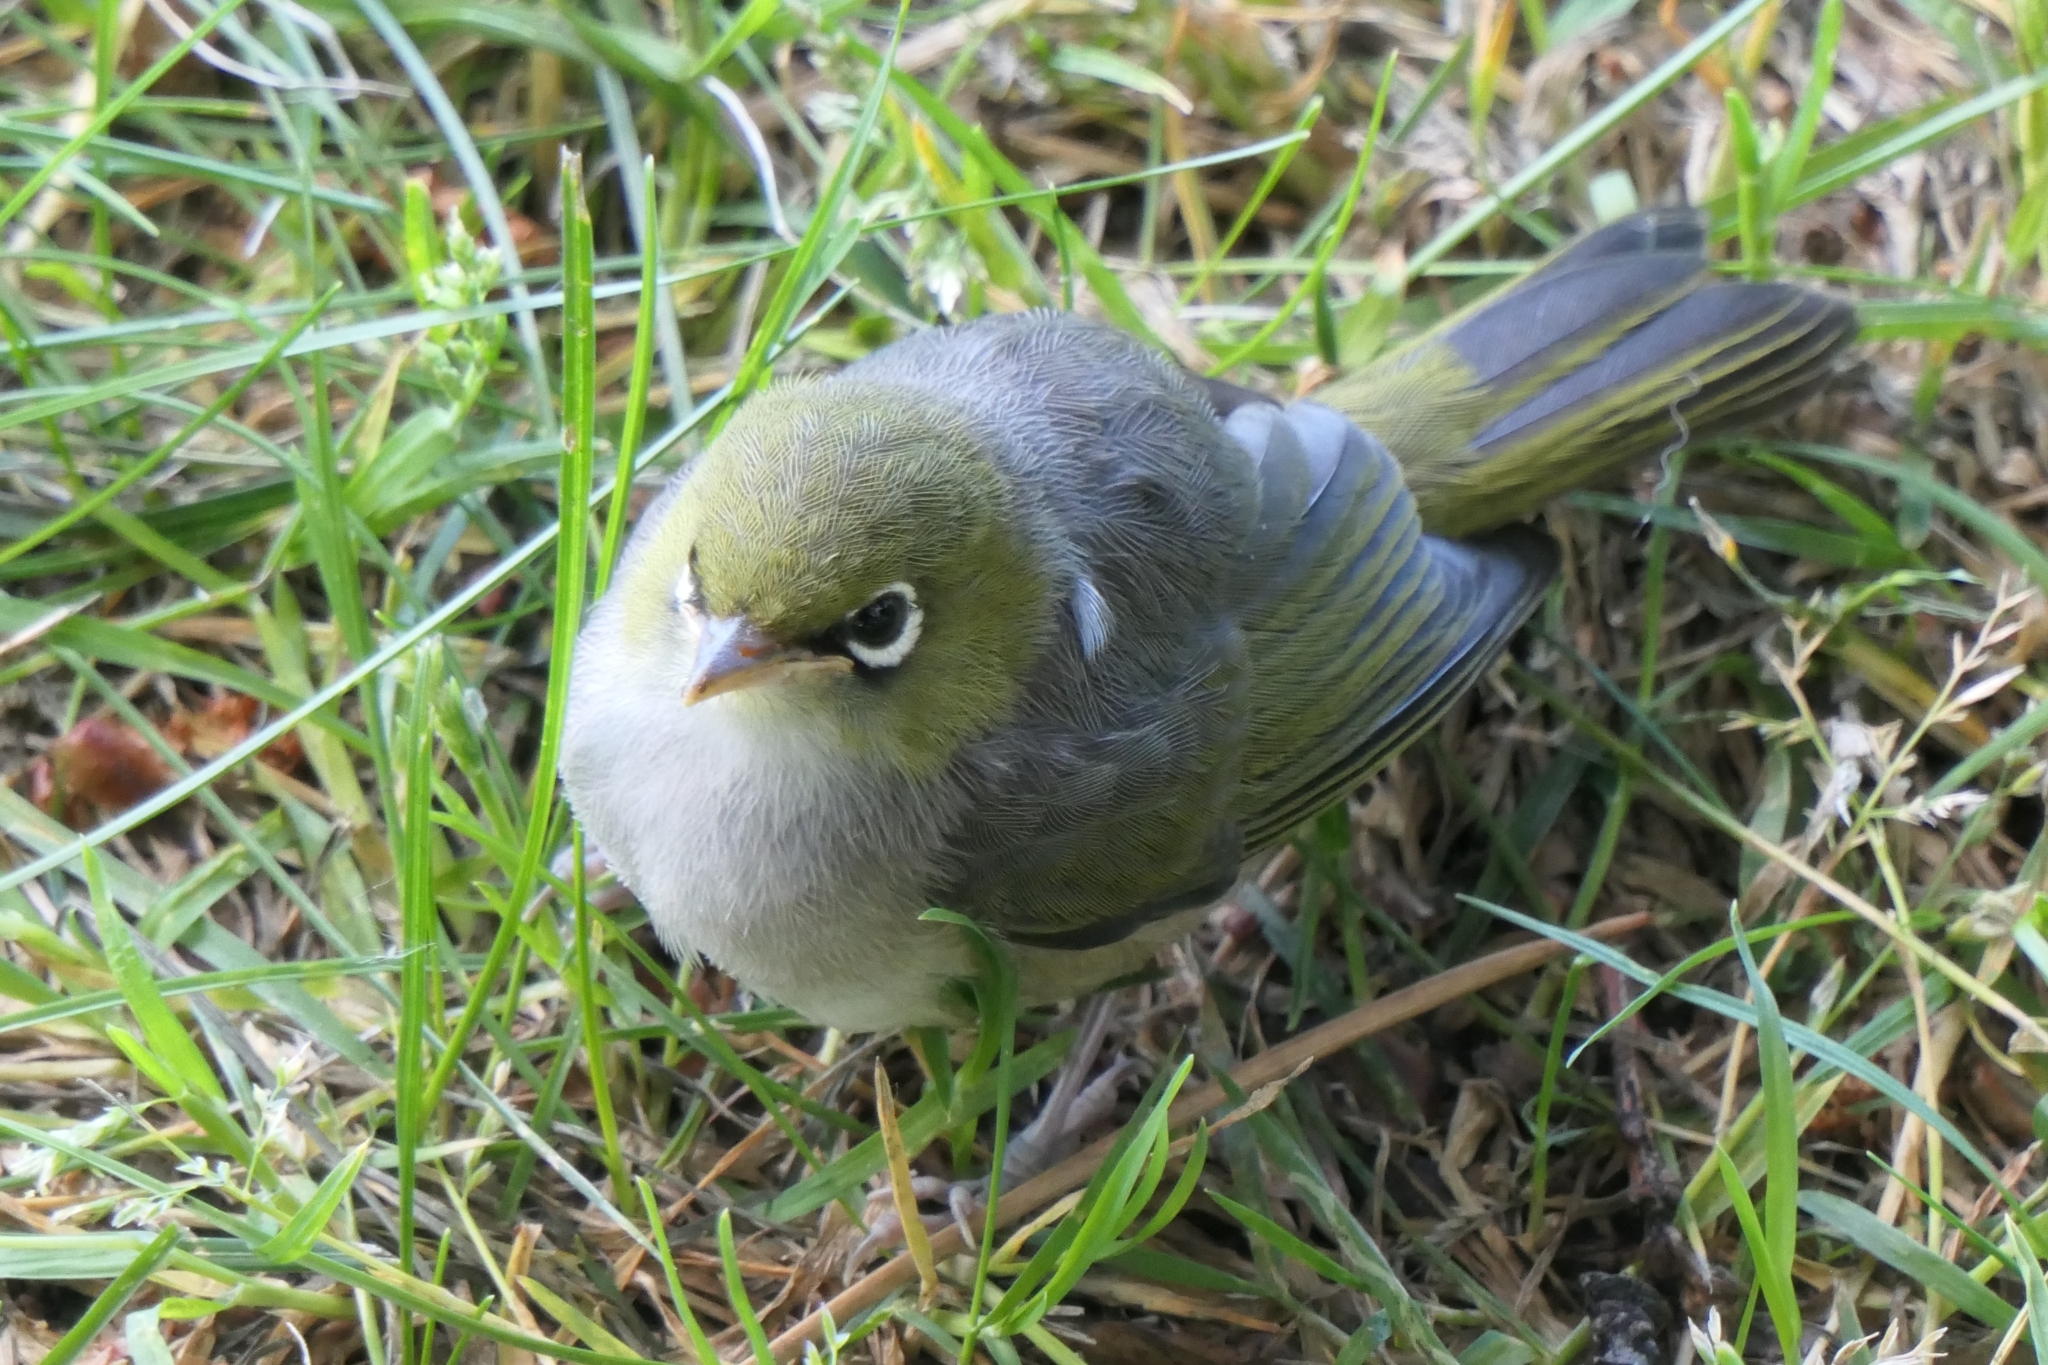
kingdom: Animalia
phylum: Chordata
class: Aves
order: Passeriformes
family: Zosteropidae
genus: Zosterops
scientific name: Zosterops lateralis
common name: Silvereye
